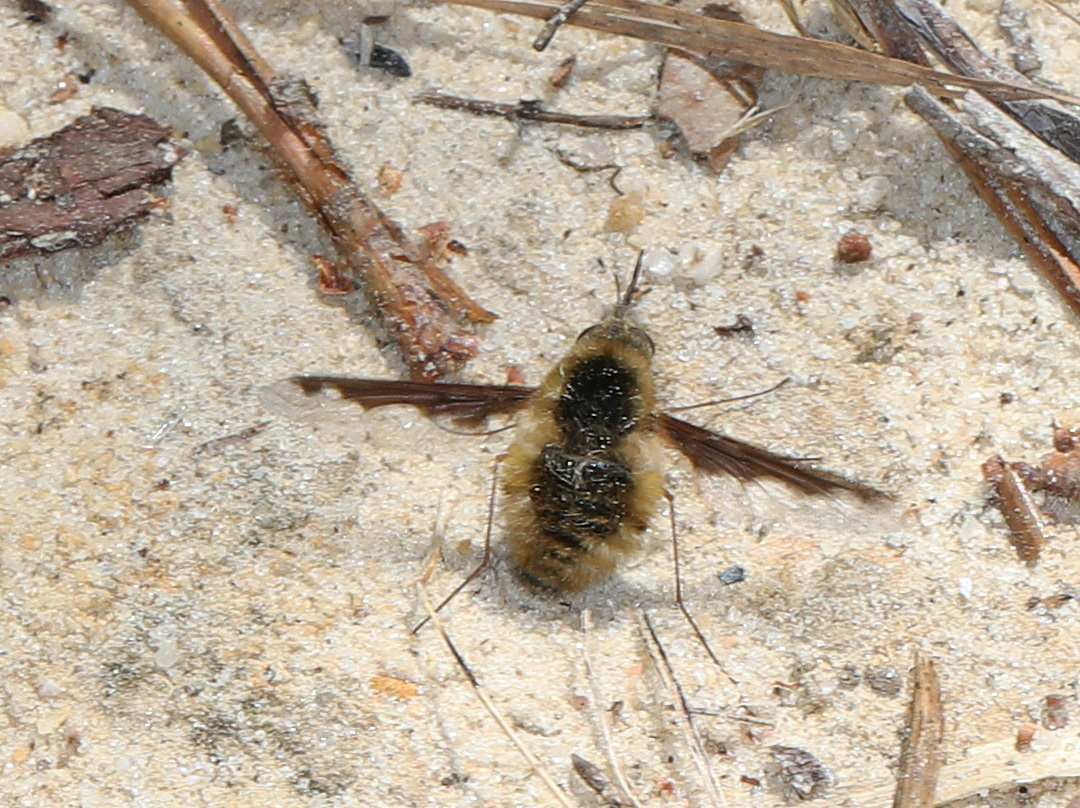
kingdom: Animalia
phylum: Arthropoda
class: Insecta
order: Diptera
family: Bombyliidae
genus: Bombylius
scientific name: Bombylius major
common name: Bee fly
